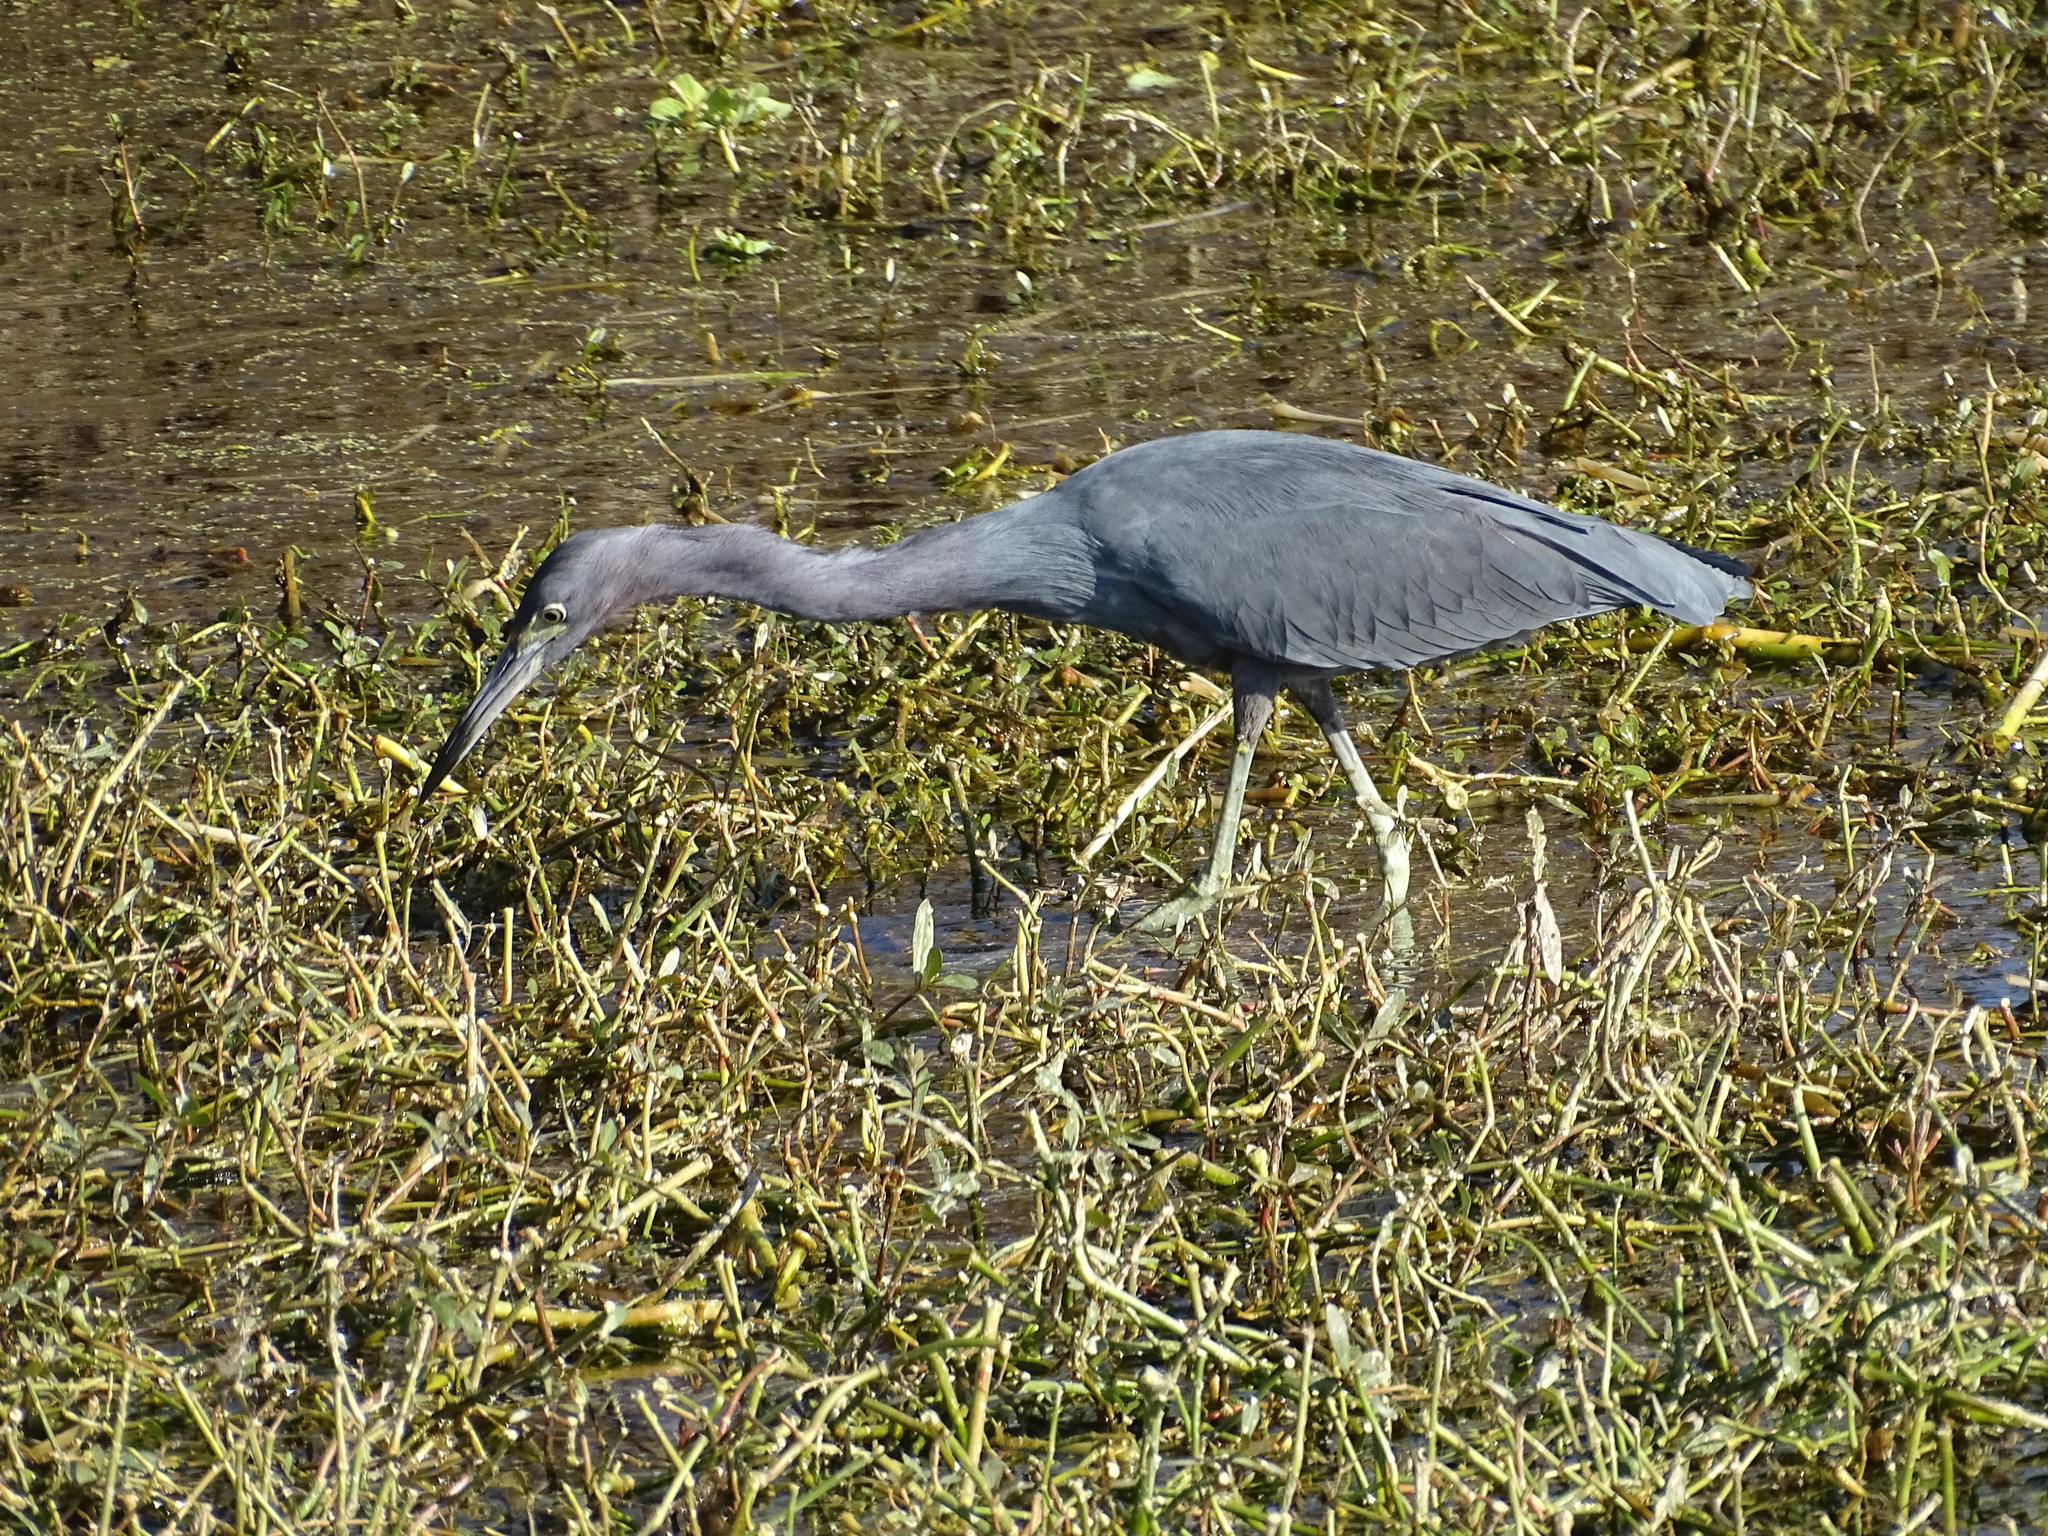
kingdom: Animalia
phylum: Chordata
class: Aves
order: Pelecaniformes
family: Ardeidae
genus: Egretta
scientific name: Egretta caerulea
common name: Little blue heron
